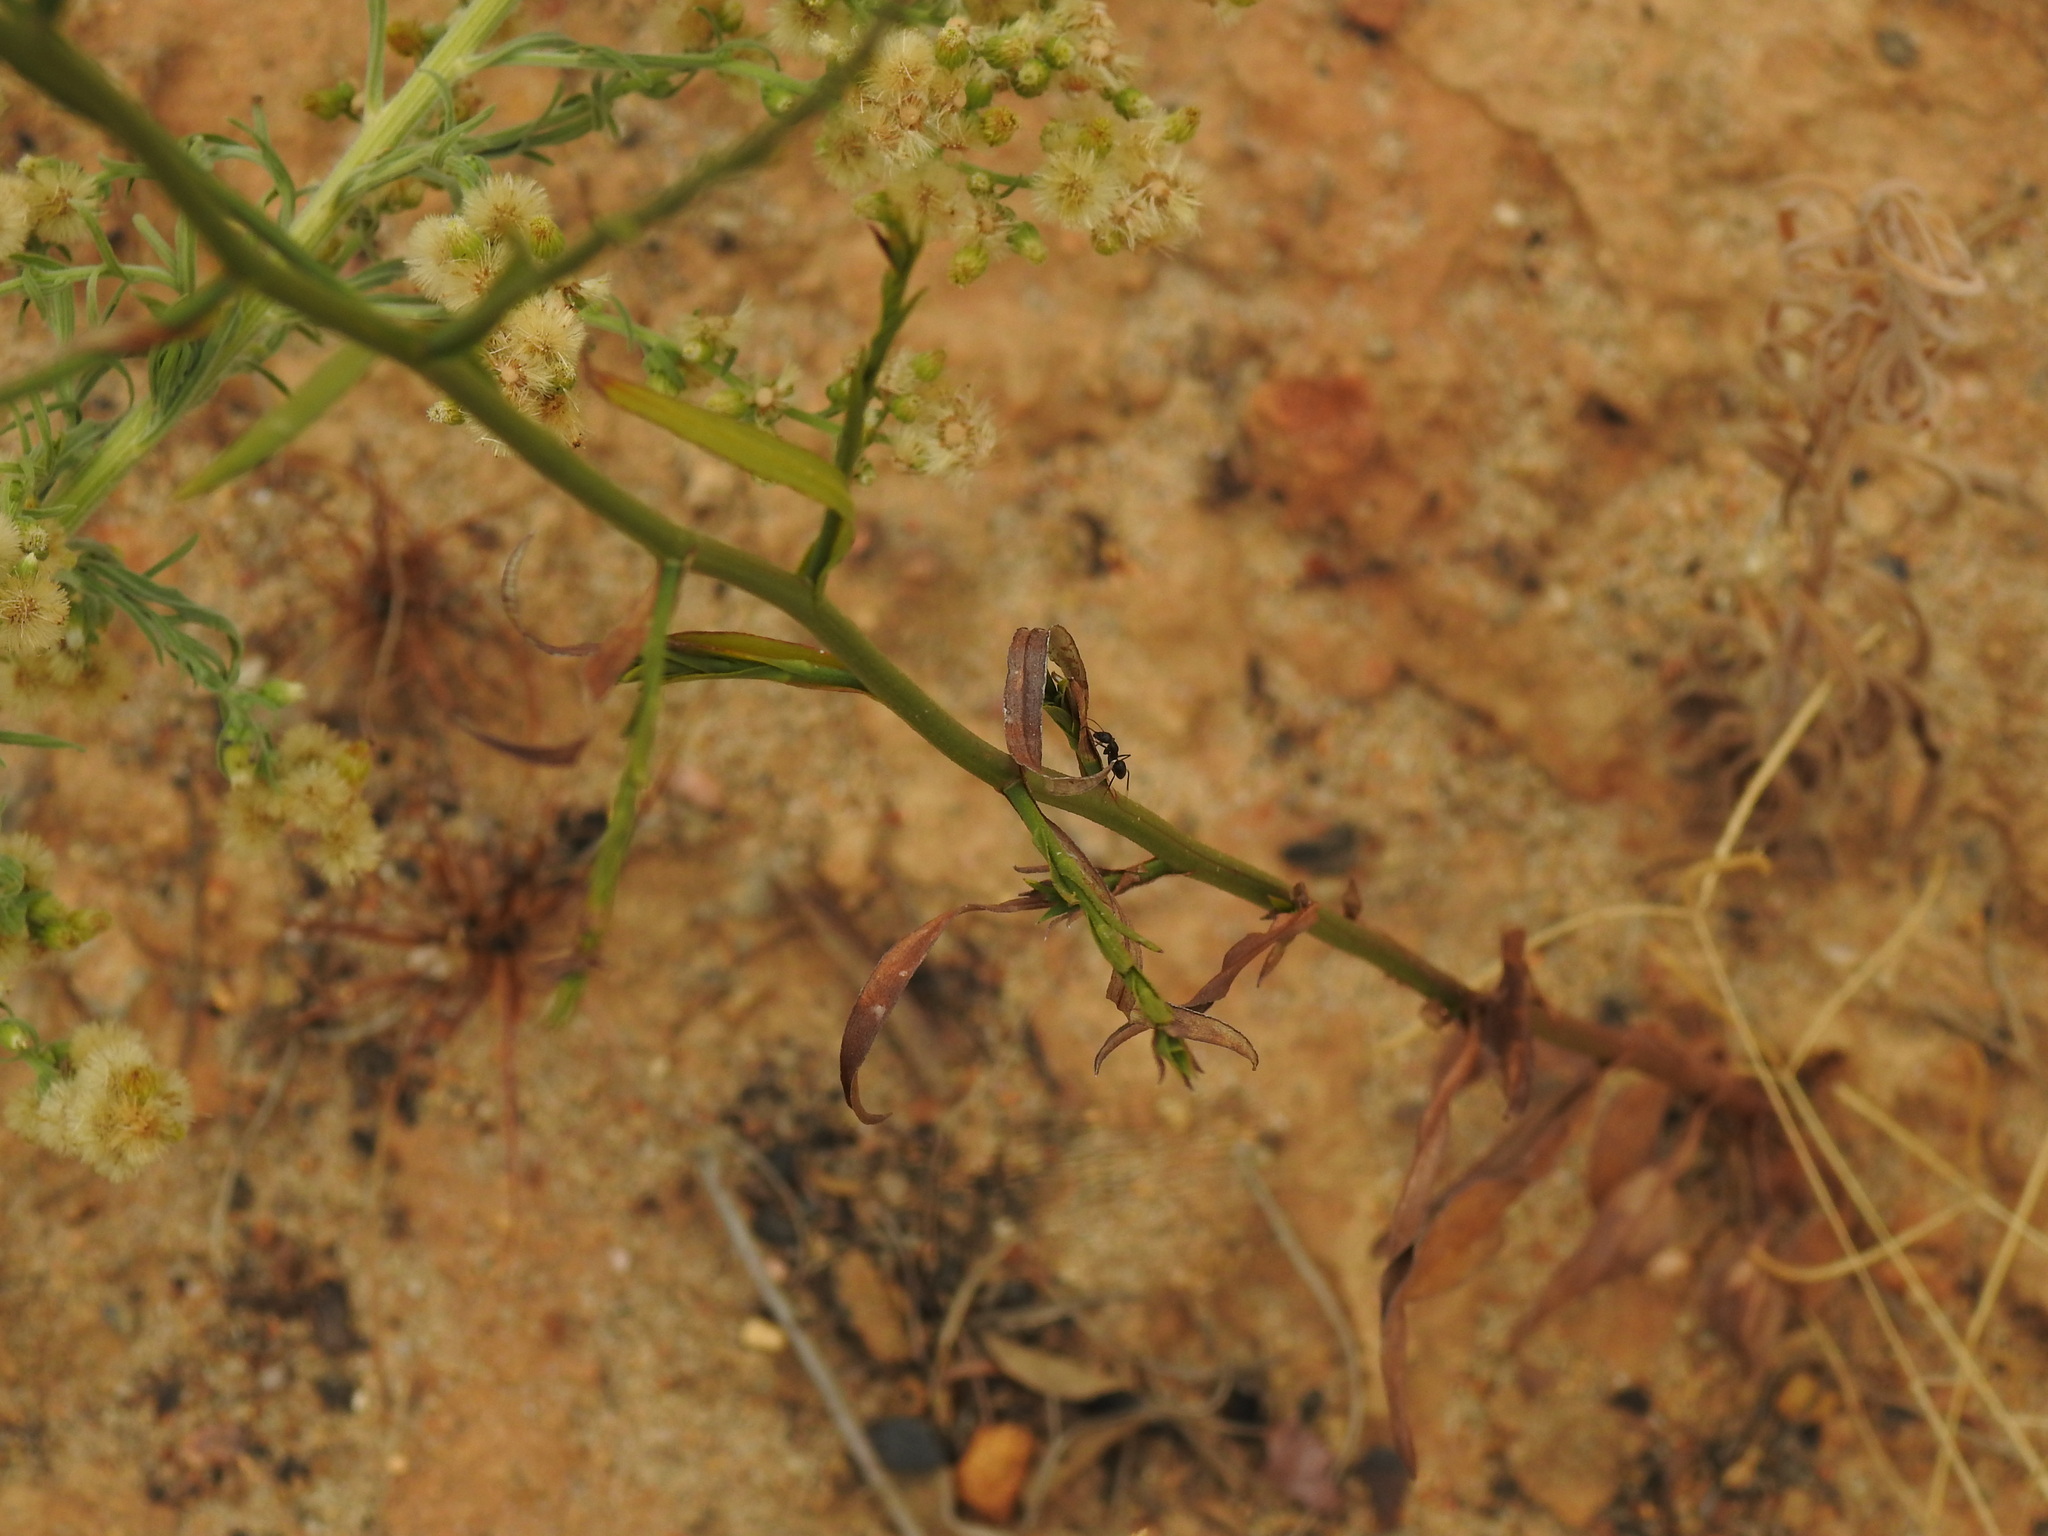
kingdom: Plantae
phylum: Tracheophyta
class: Magnoliopsida
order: Asterales
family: Asteraceae
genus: Symphyotrichum
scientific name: Symphyotrichum squamatum
